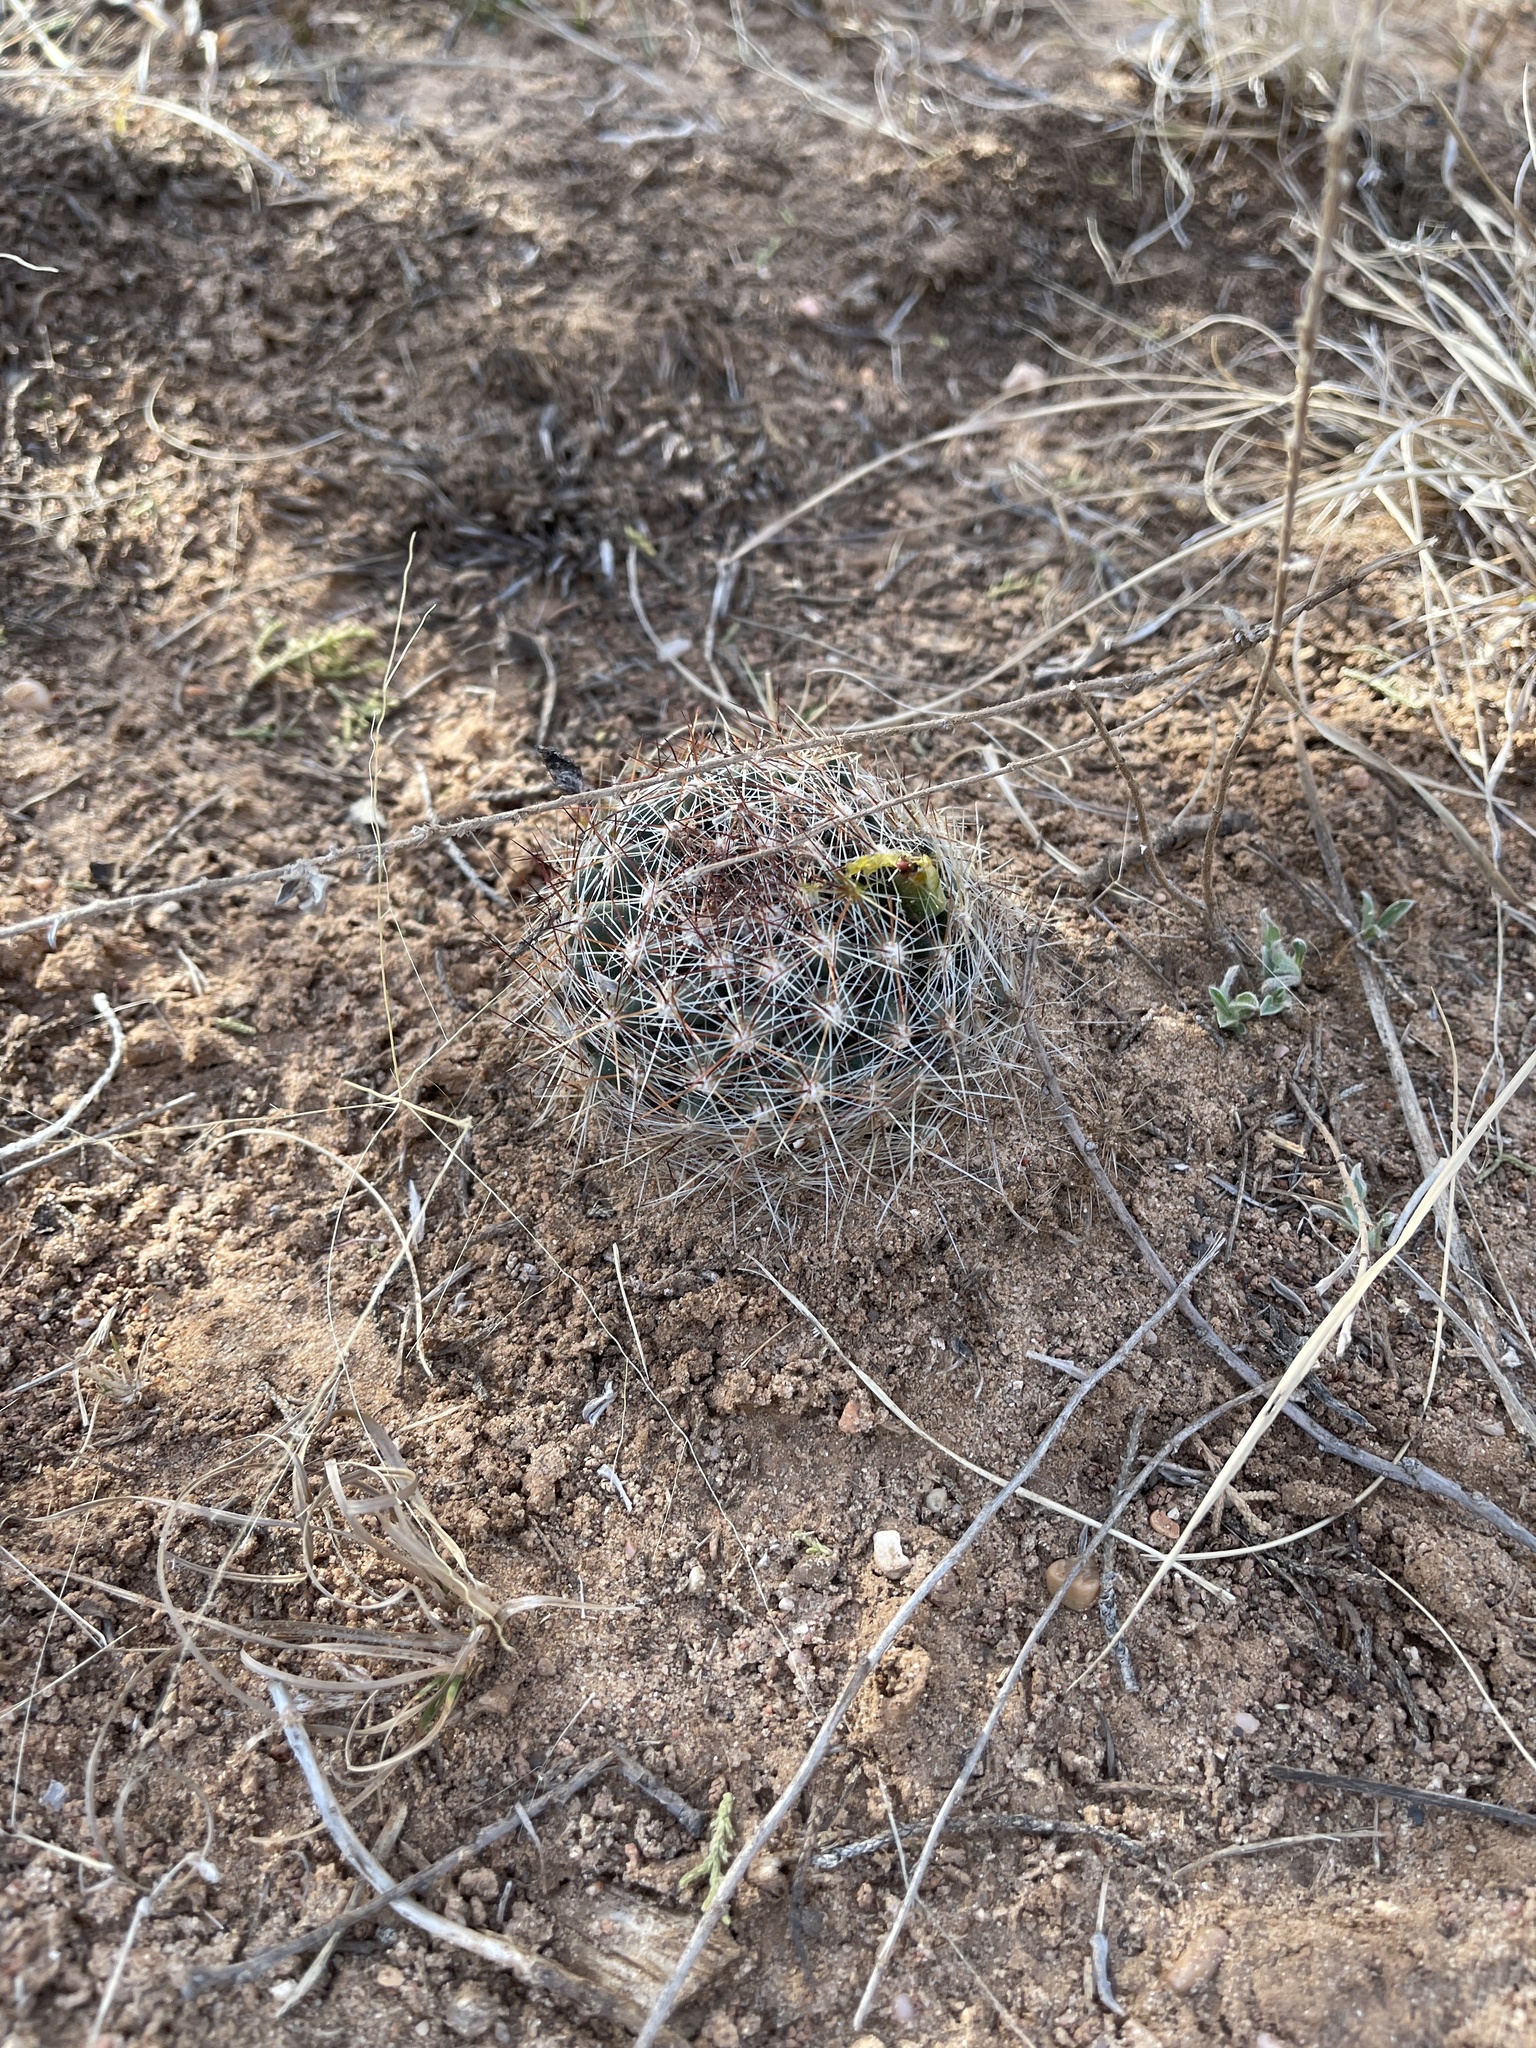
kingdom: Plantae
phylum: Tracheophyta
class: Magnoliopsida
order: Caryophyllales
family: Cactaceae
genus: Pelecyphora
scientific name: Pelecyphora vivipara
